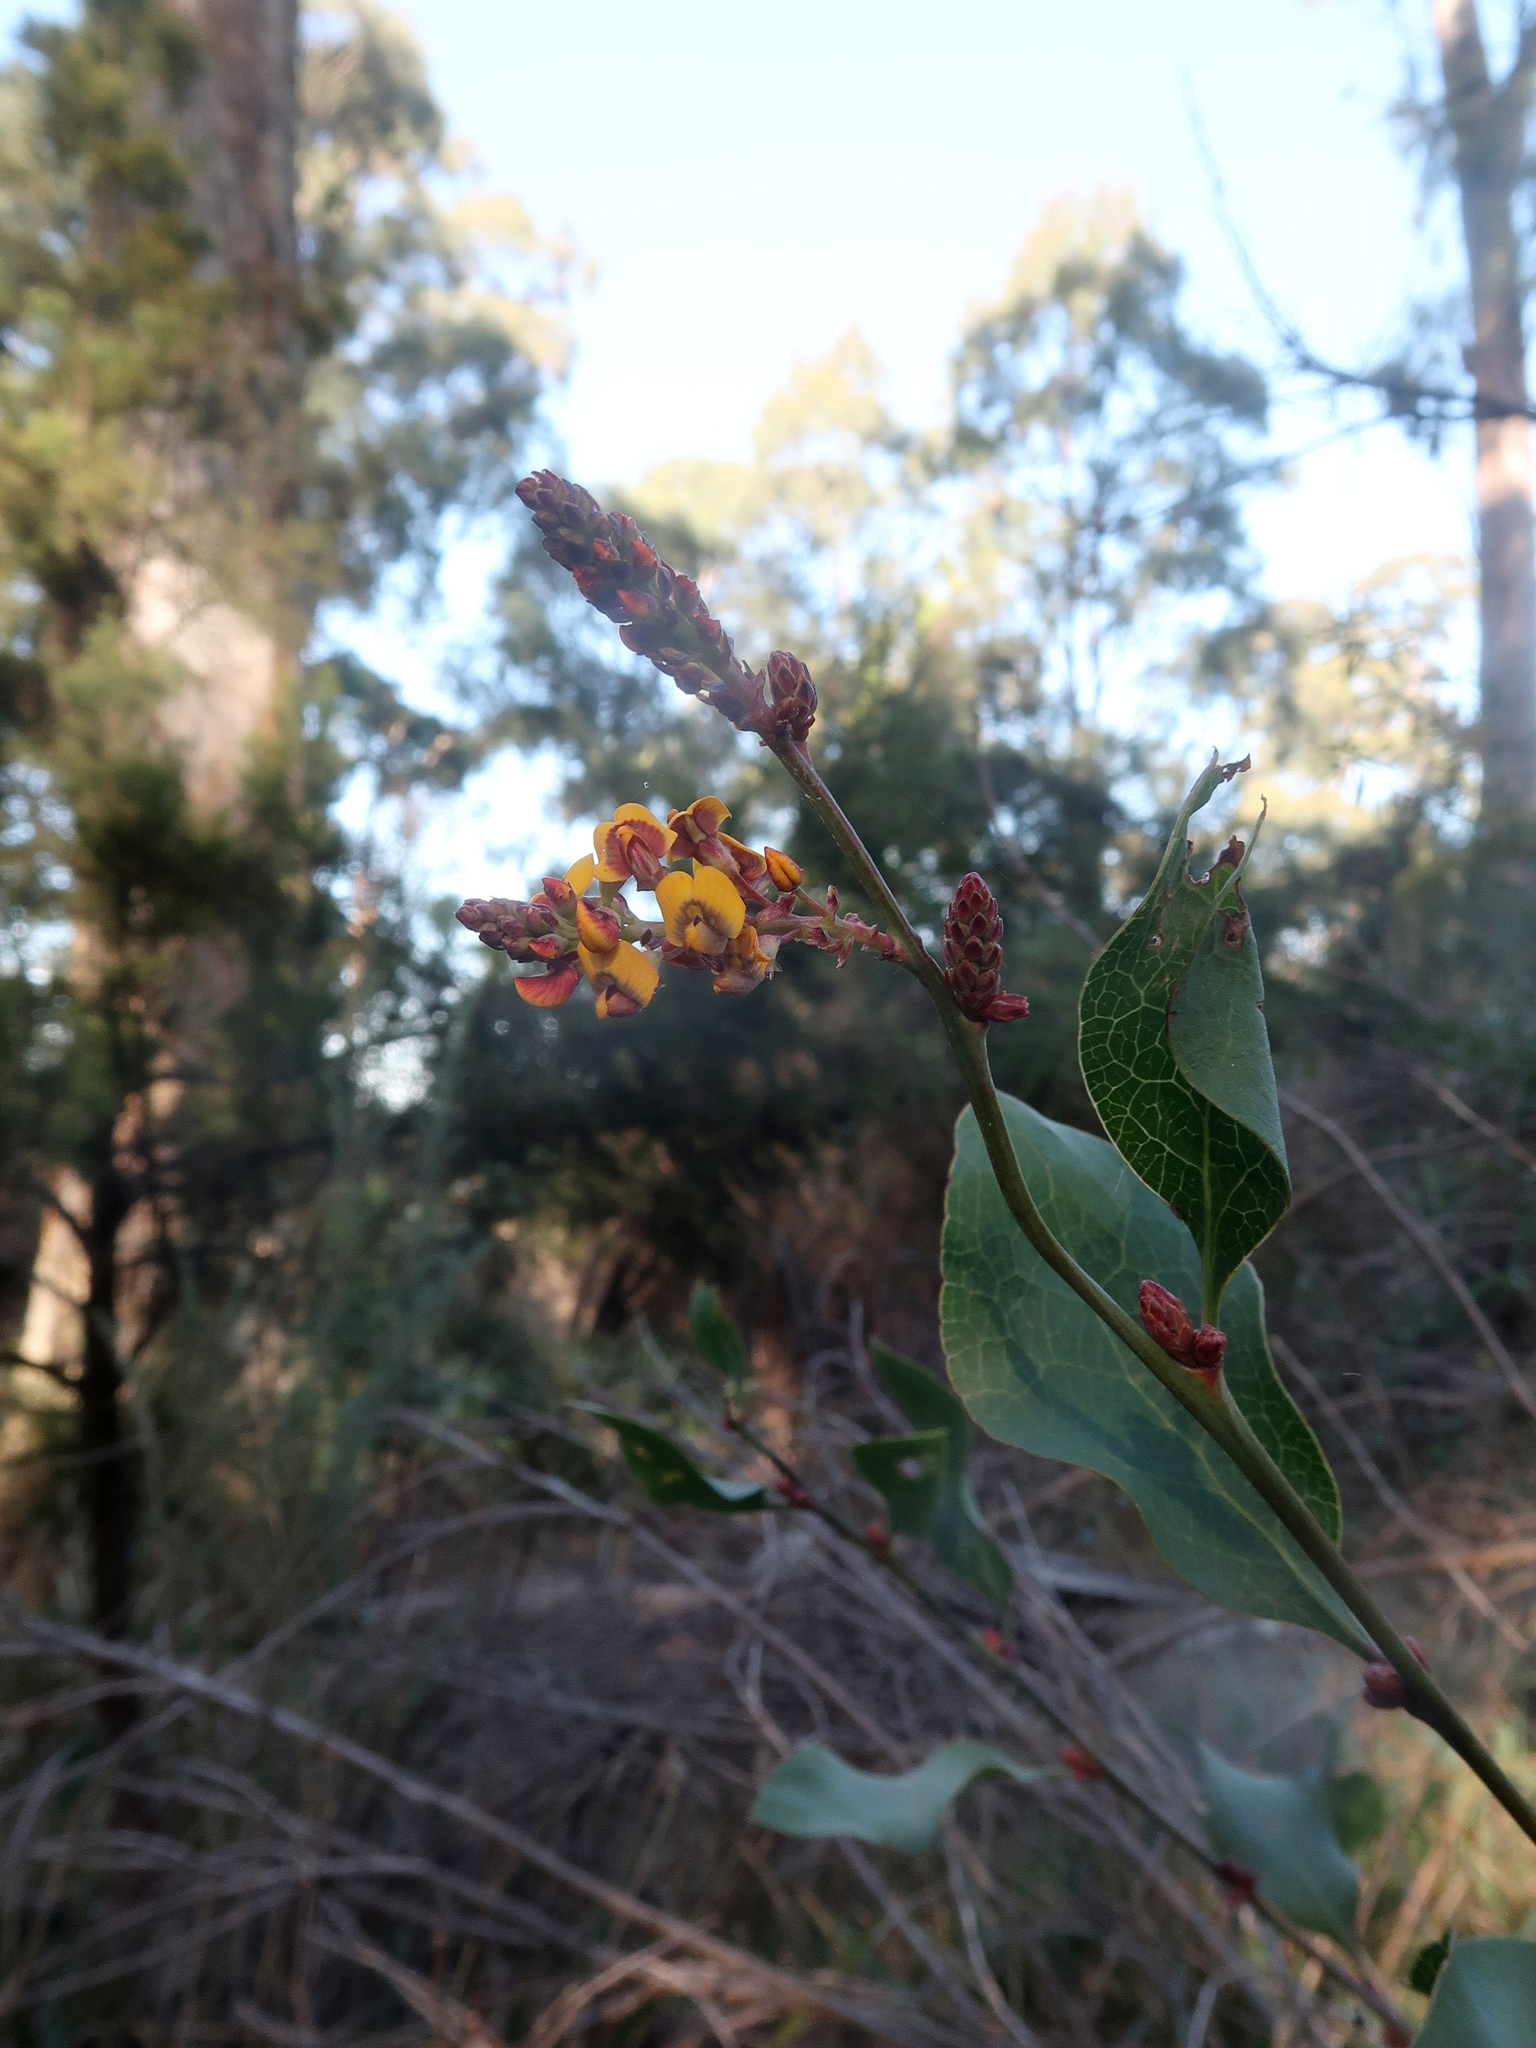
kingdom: Plantae
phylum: Tracheophyta
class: Magnoliopsida
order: Fabales
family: Fabaceae
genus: Daviesia
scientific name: Daviesia latifolia
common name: Hop bitter-pea
